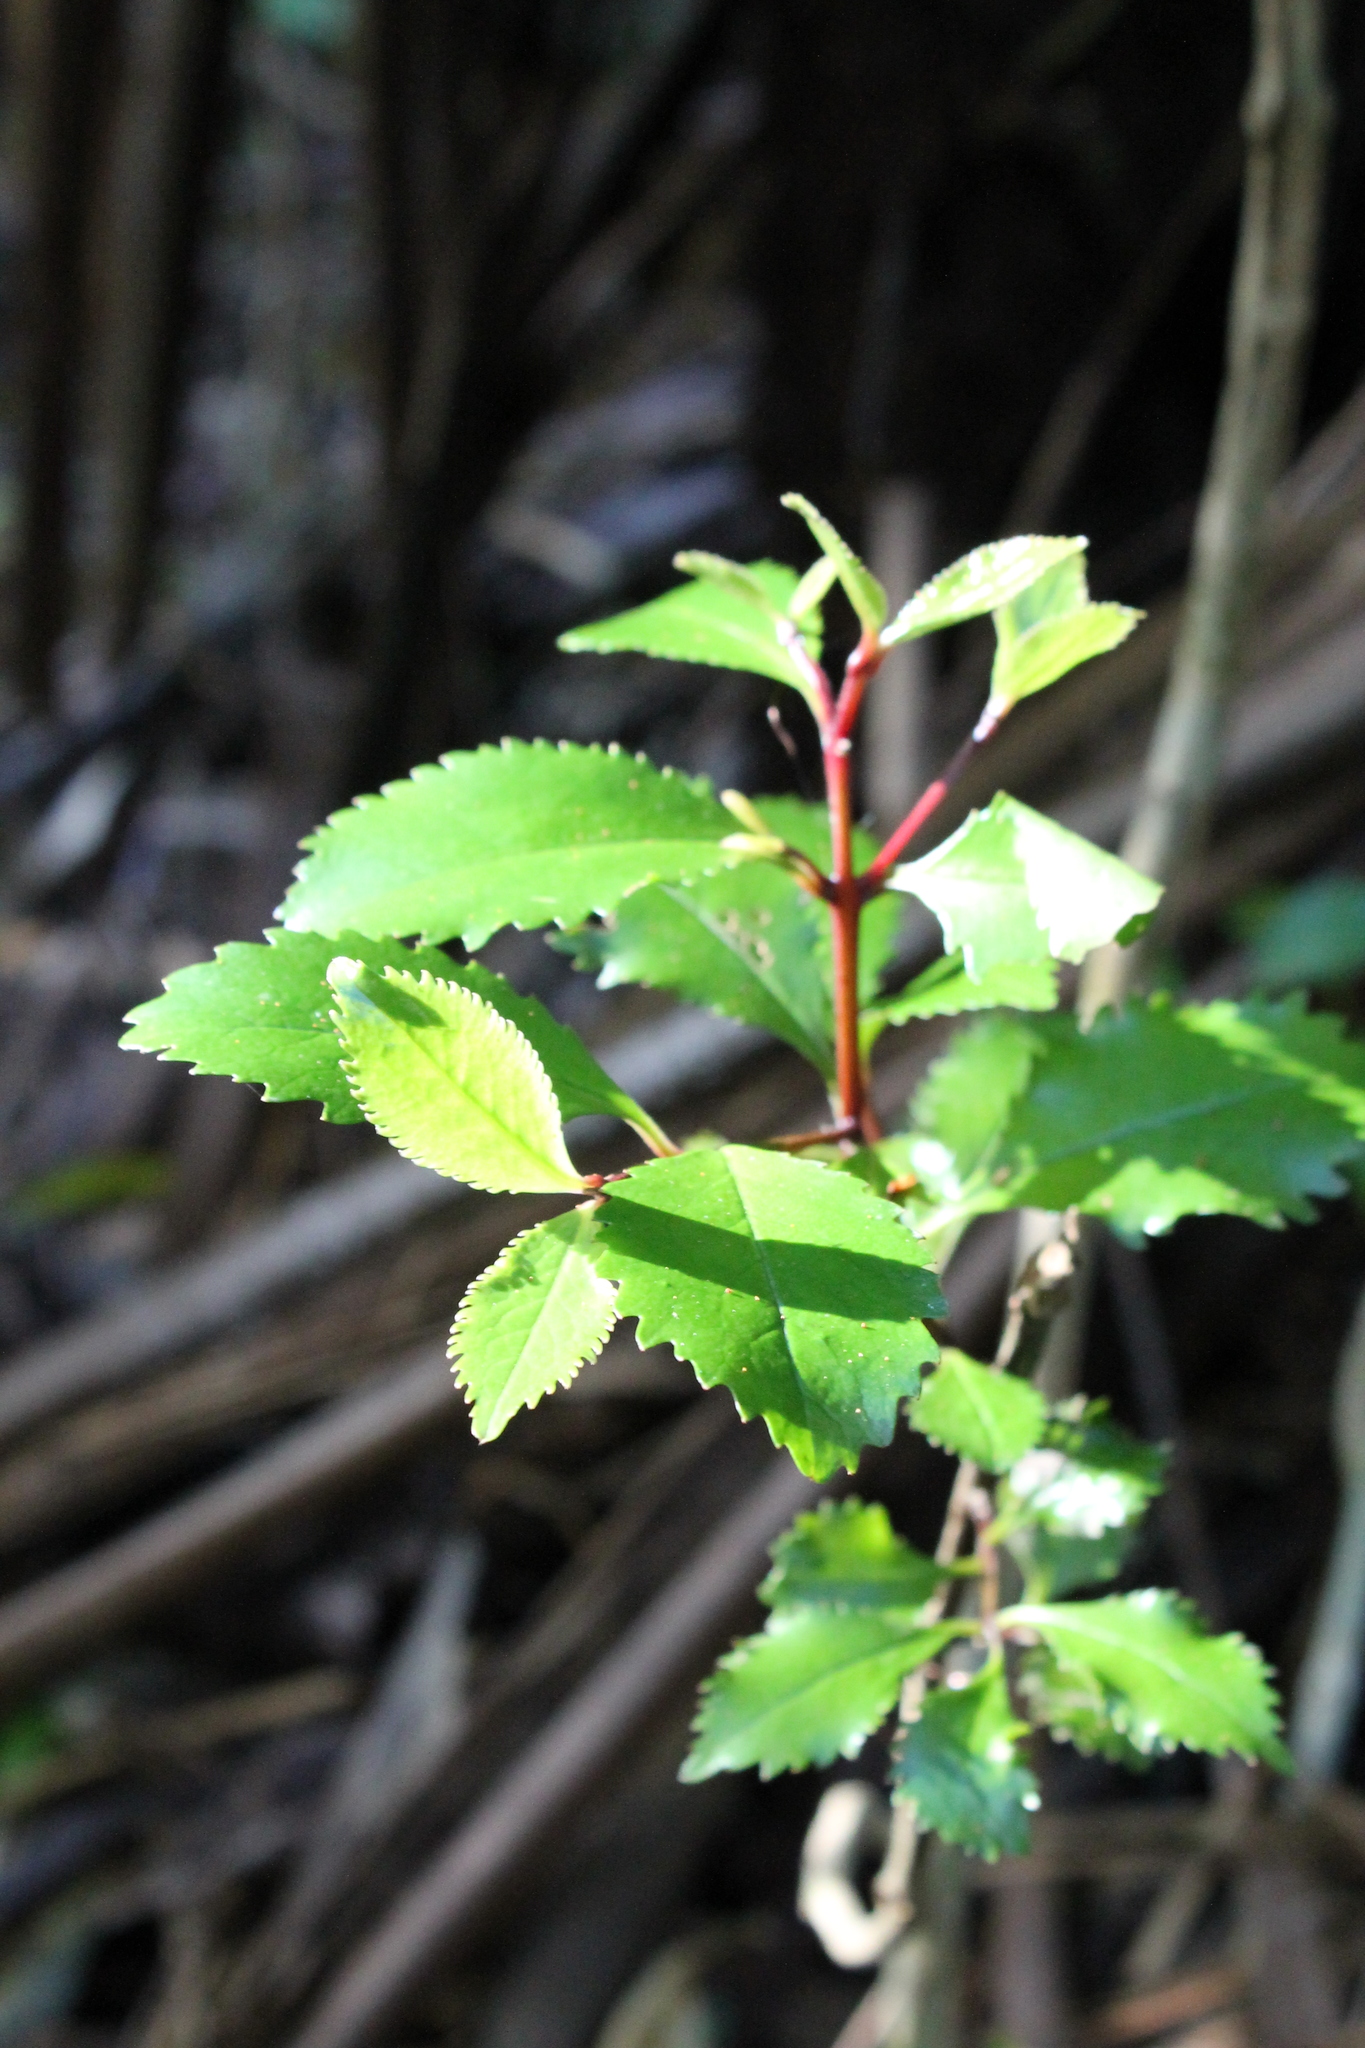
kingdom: Plantae
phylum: Tracheophyta
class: Magnoliopsida
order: Laurales
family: Atherospermataceae
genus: Laurelia
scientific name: Laurelia novae-zelandiae
